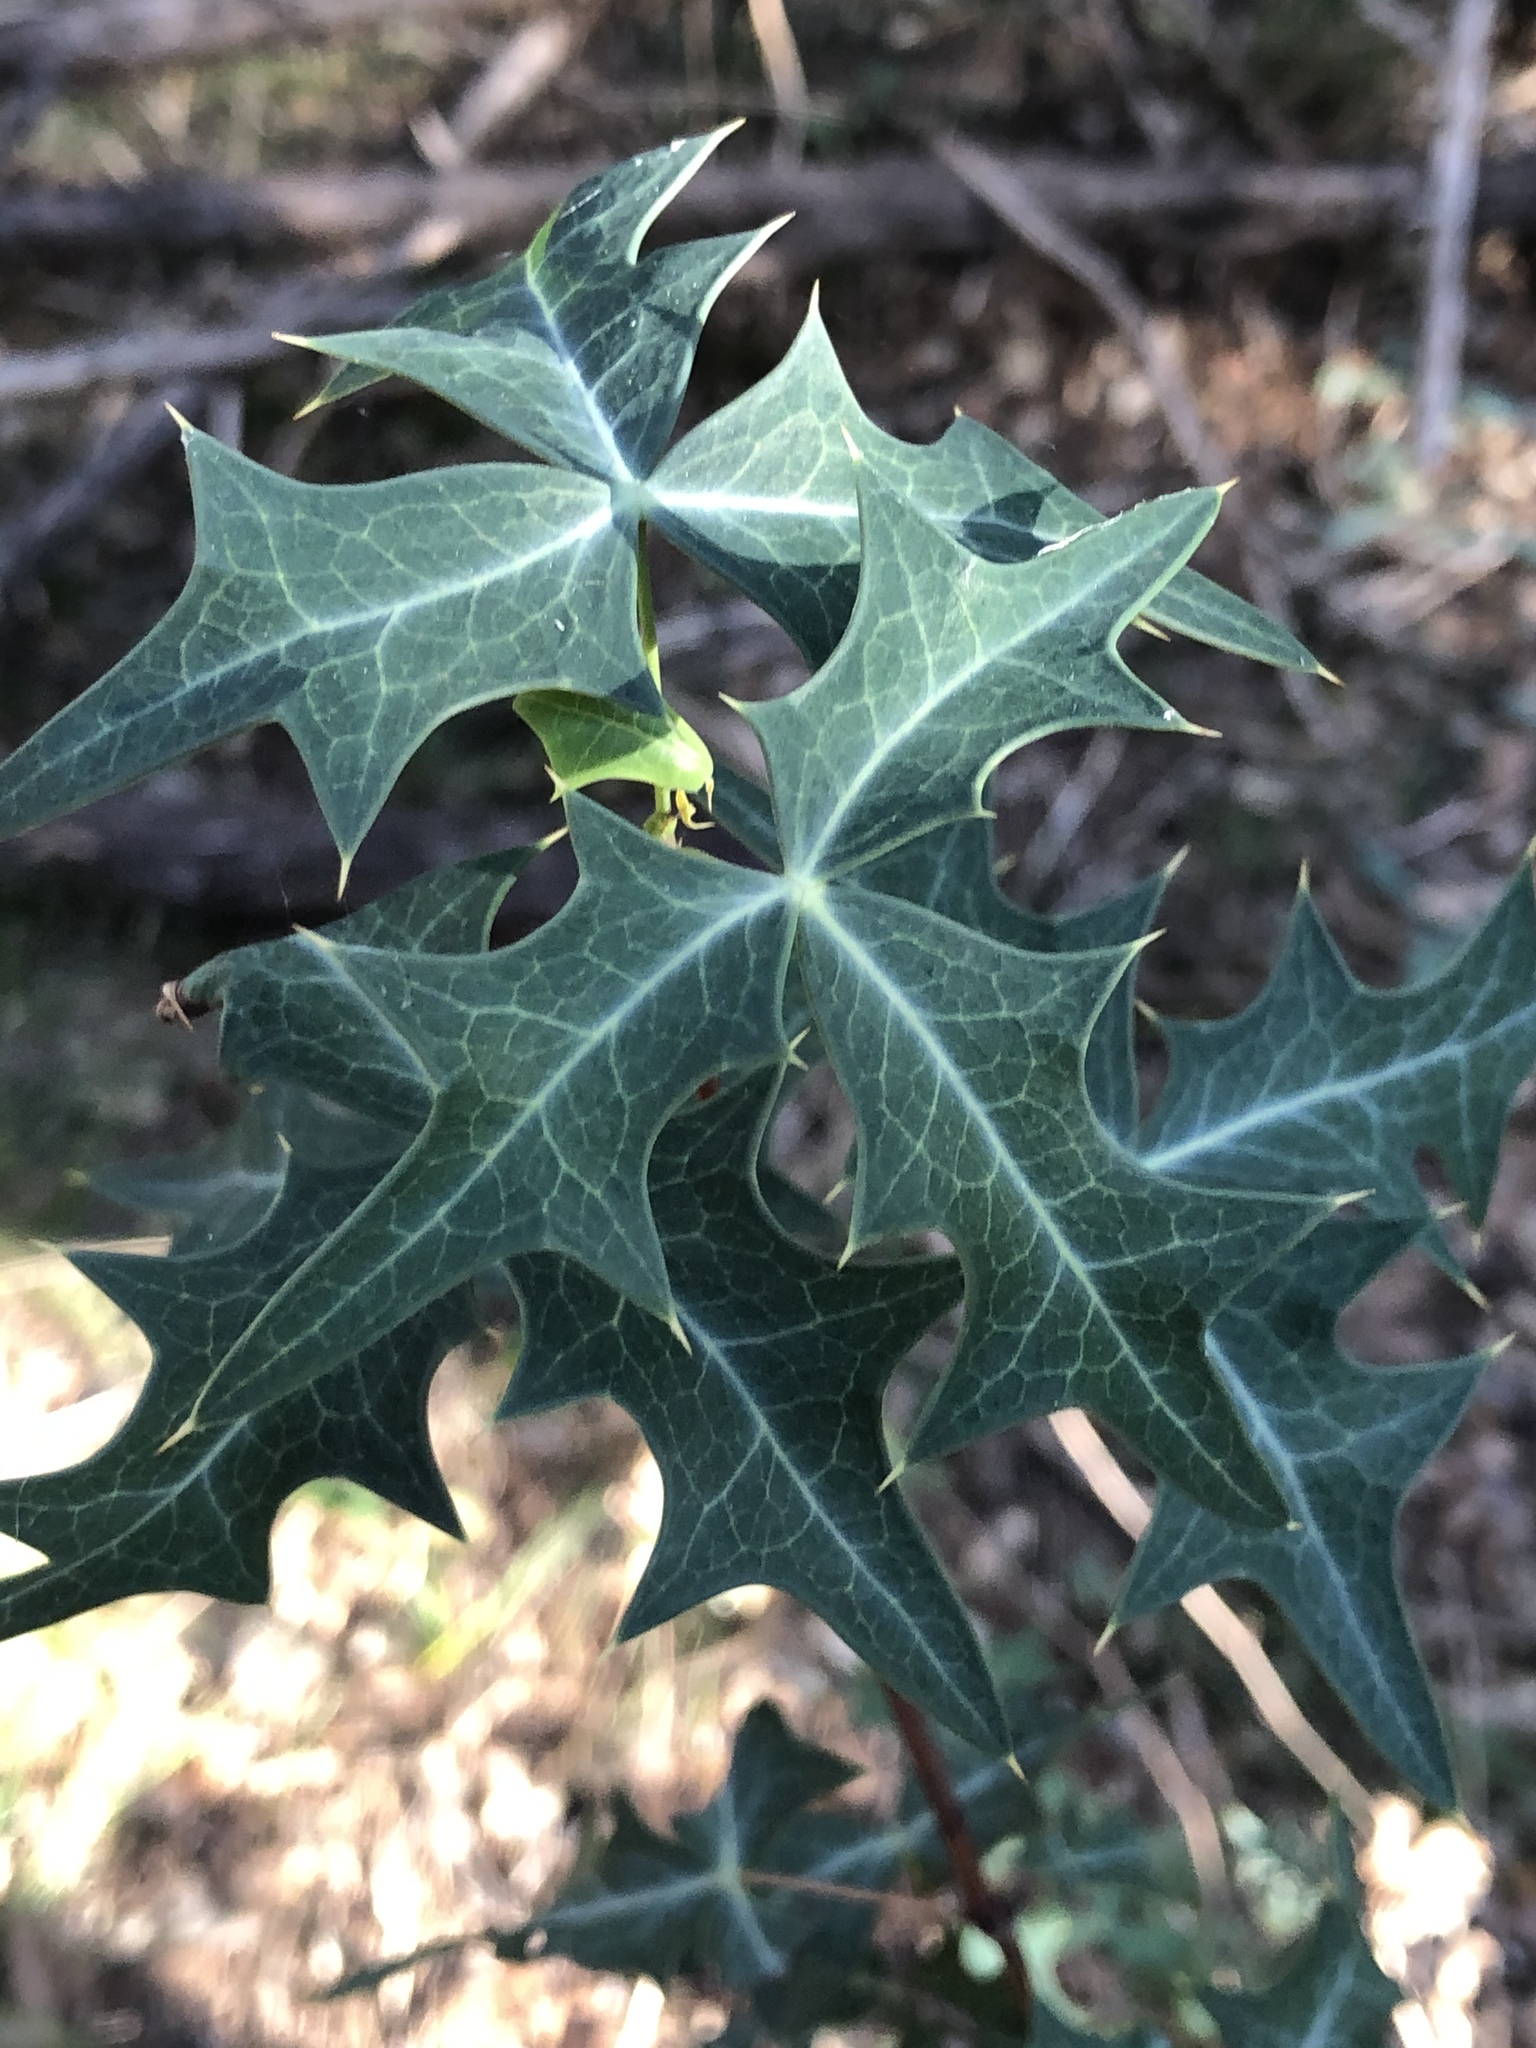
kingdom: Plantae
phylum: Tracheophyta
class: Magnoliopsida
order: Ranunculales
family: Berberidaceae
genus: Alloberberis
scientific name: Alloberberis trifoliolata
